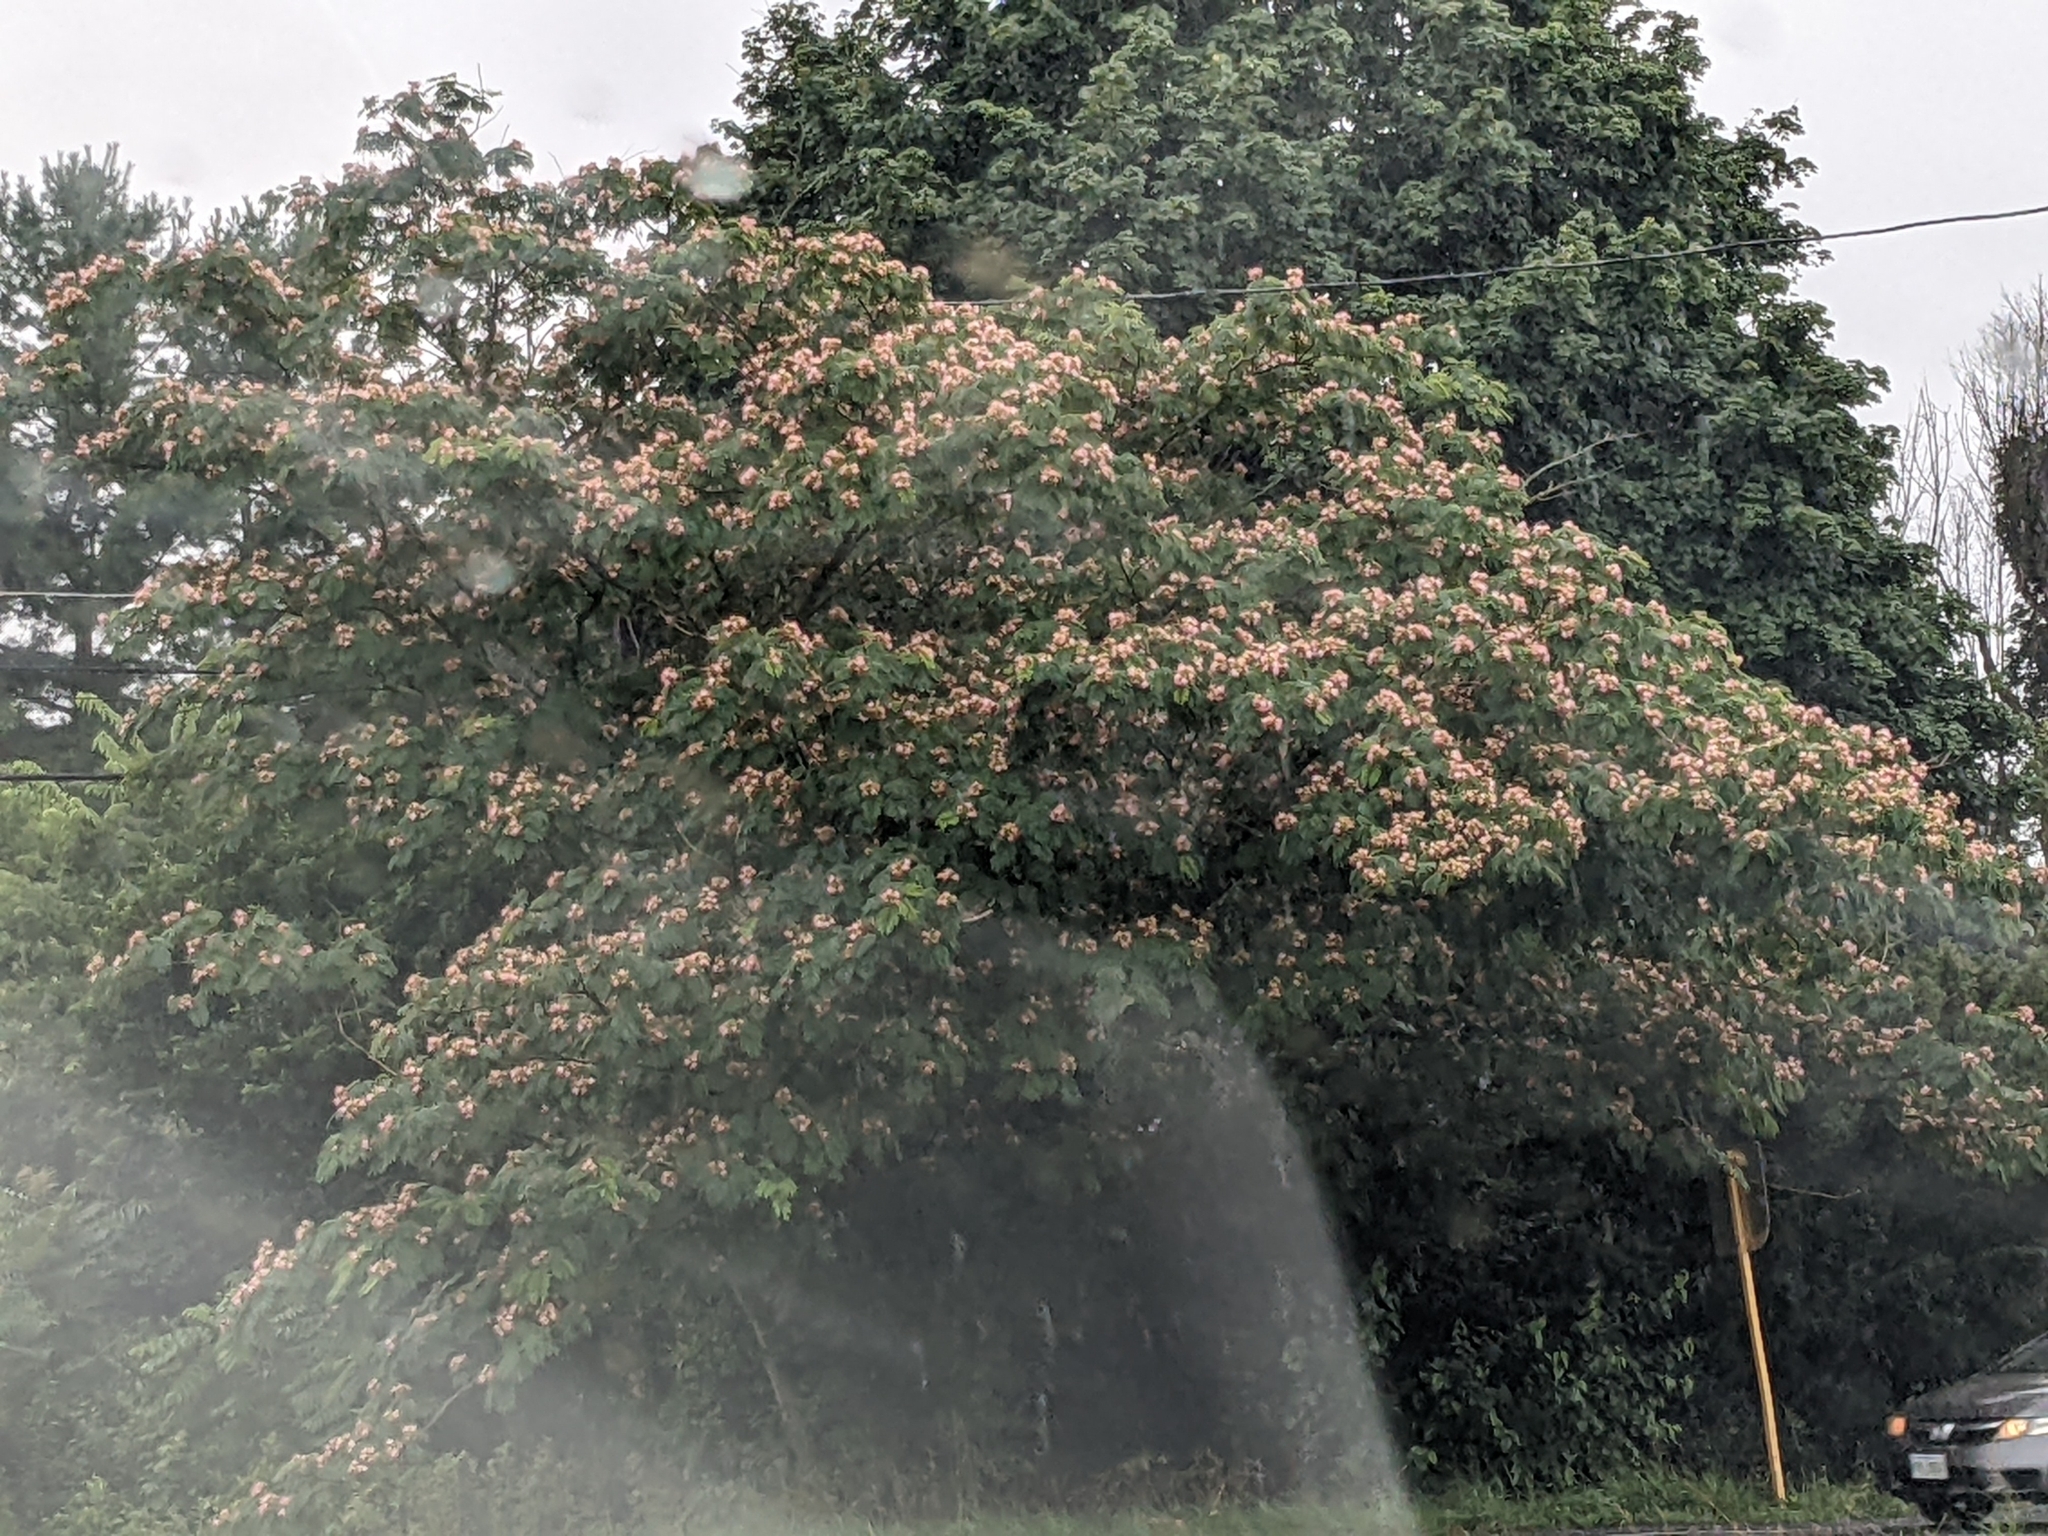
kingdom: Plantae
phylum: Tracheophyta
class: Magnoliopsida
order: Fabales
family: Fabaceae
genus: Albizia
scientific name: Albizia julibrissin
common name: Silktree
